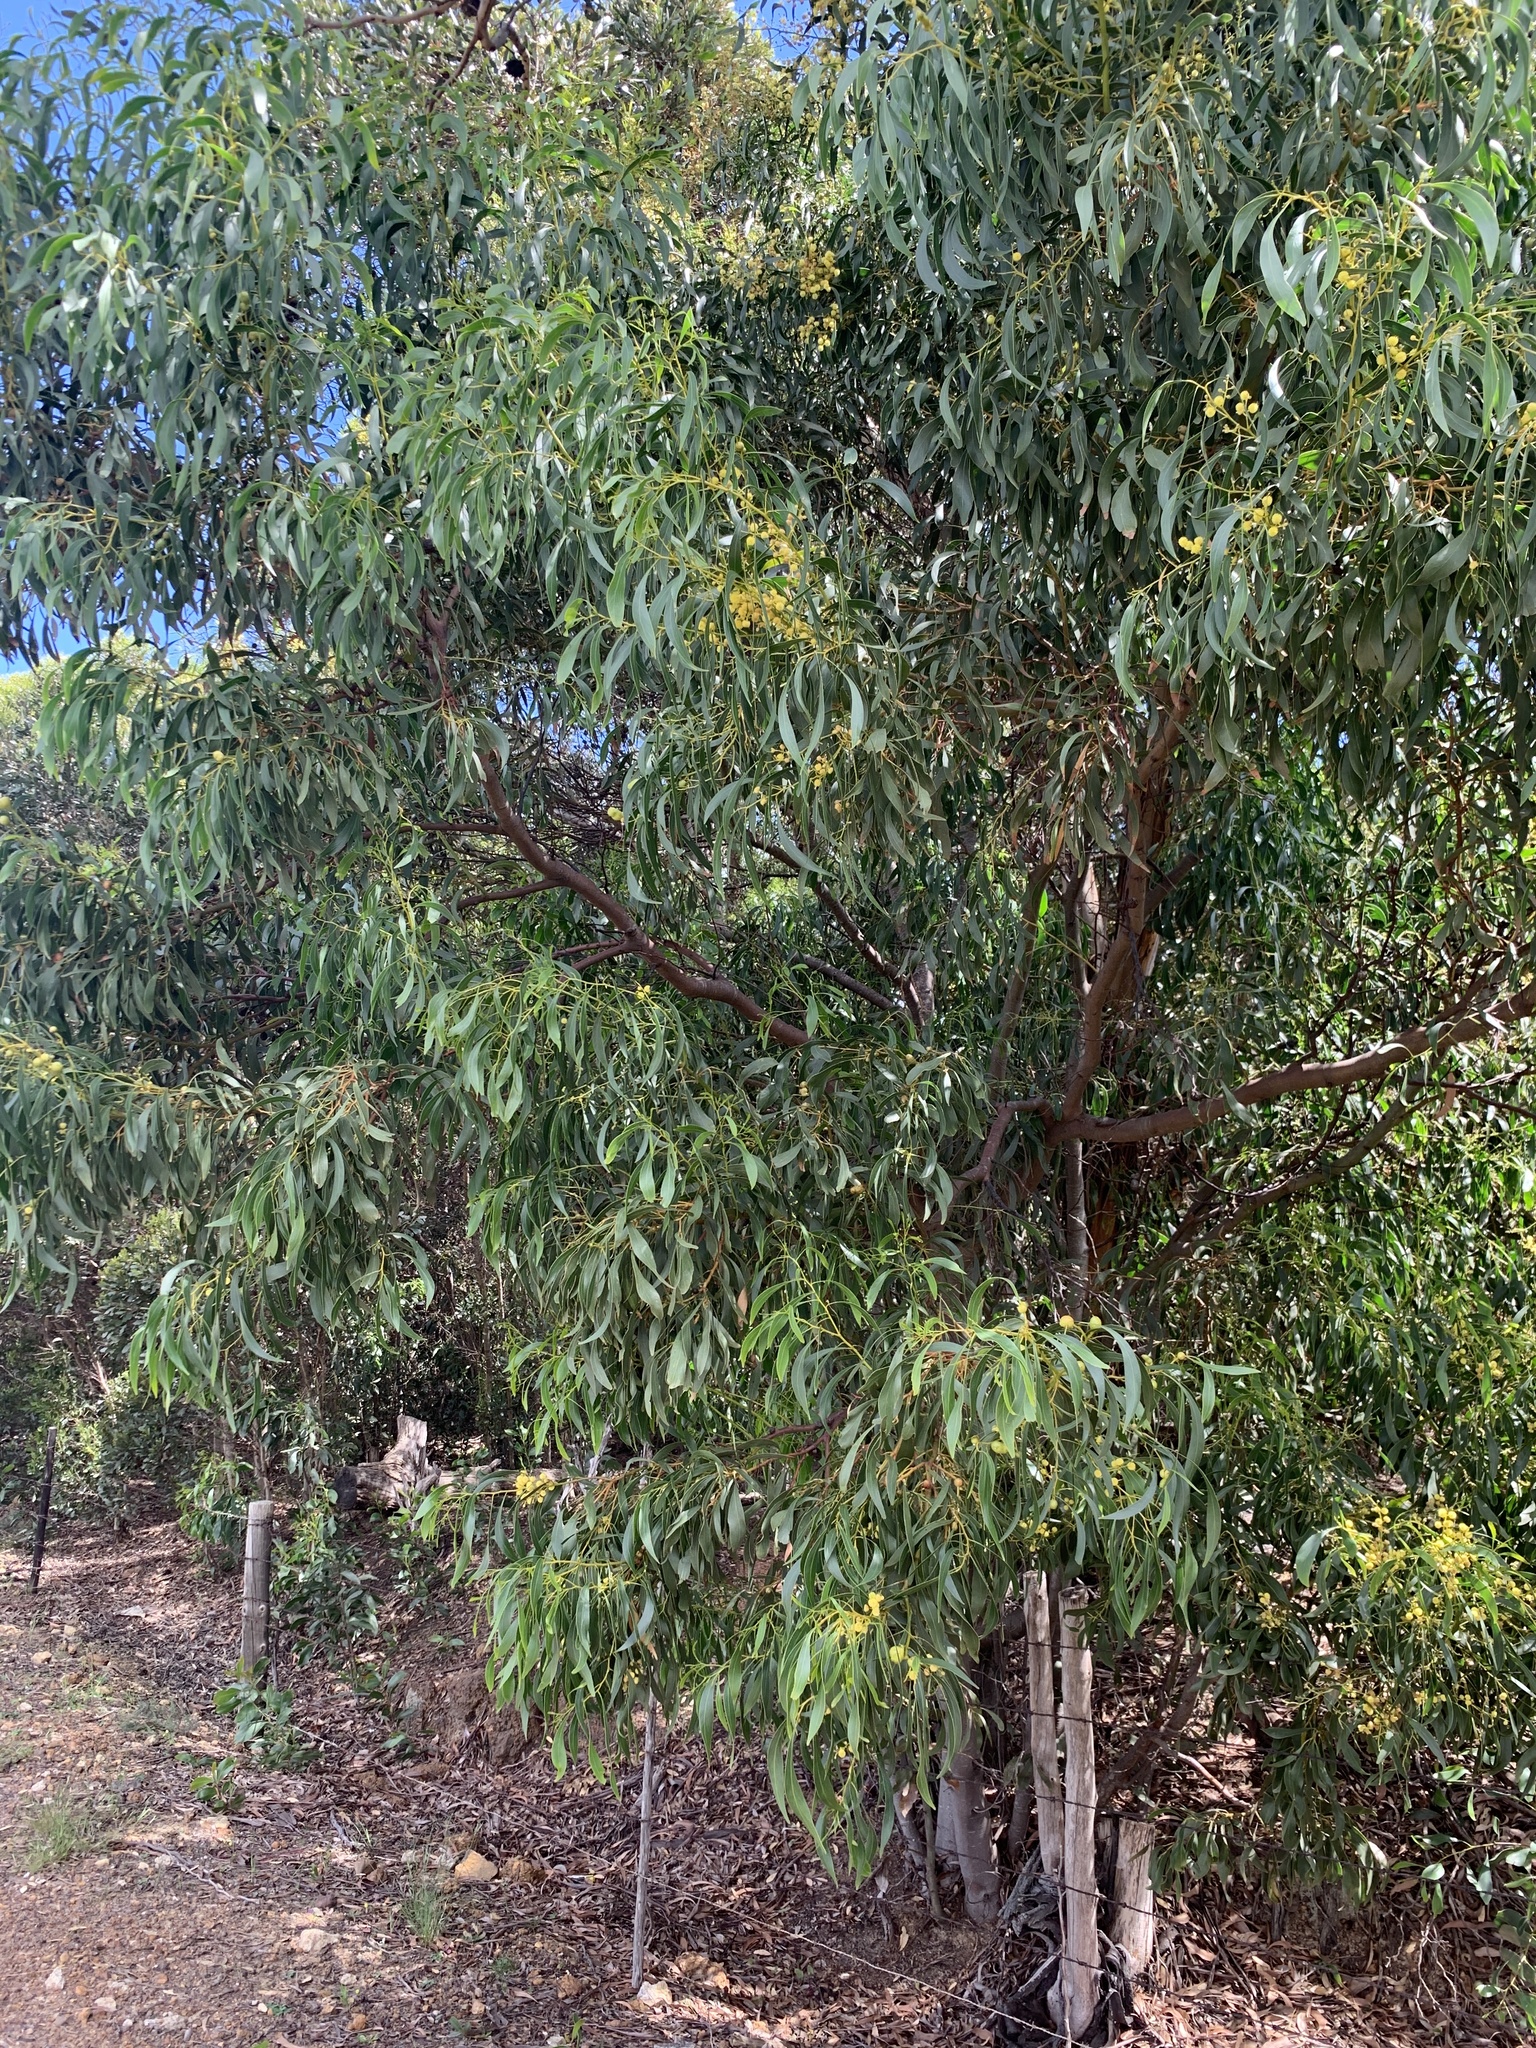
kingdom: Plantae
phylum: Tracheophyta
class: Magnoliopsida
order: Fabales
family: Fabaceae
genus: Acacia
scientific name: Acacia pycnantha
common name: Golden wattle
